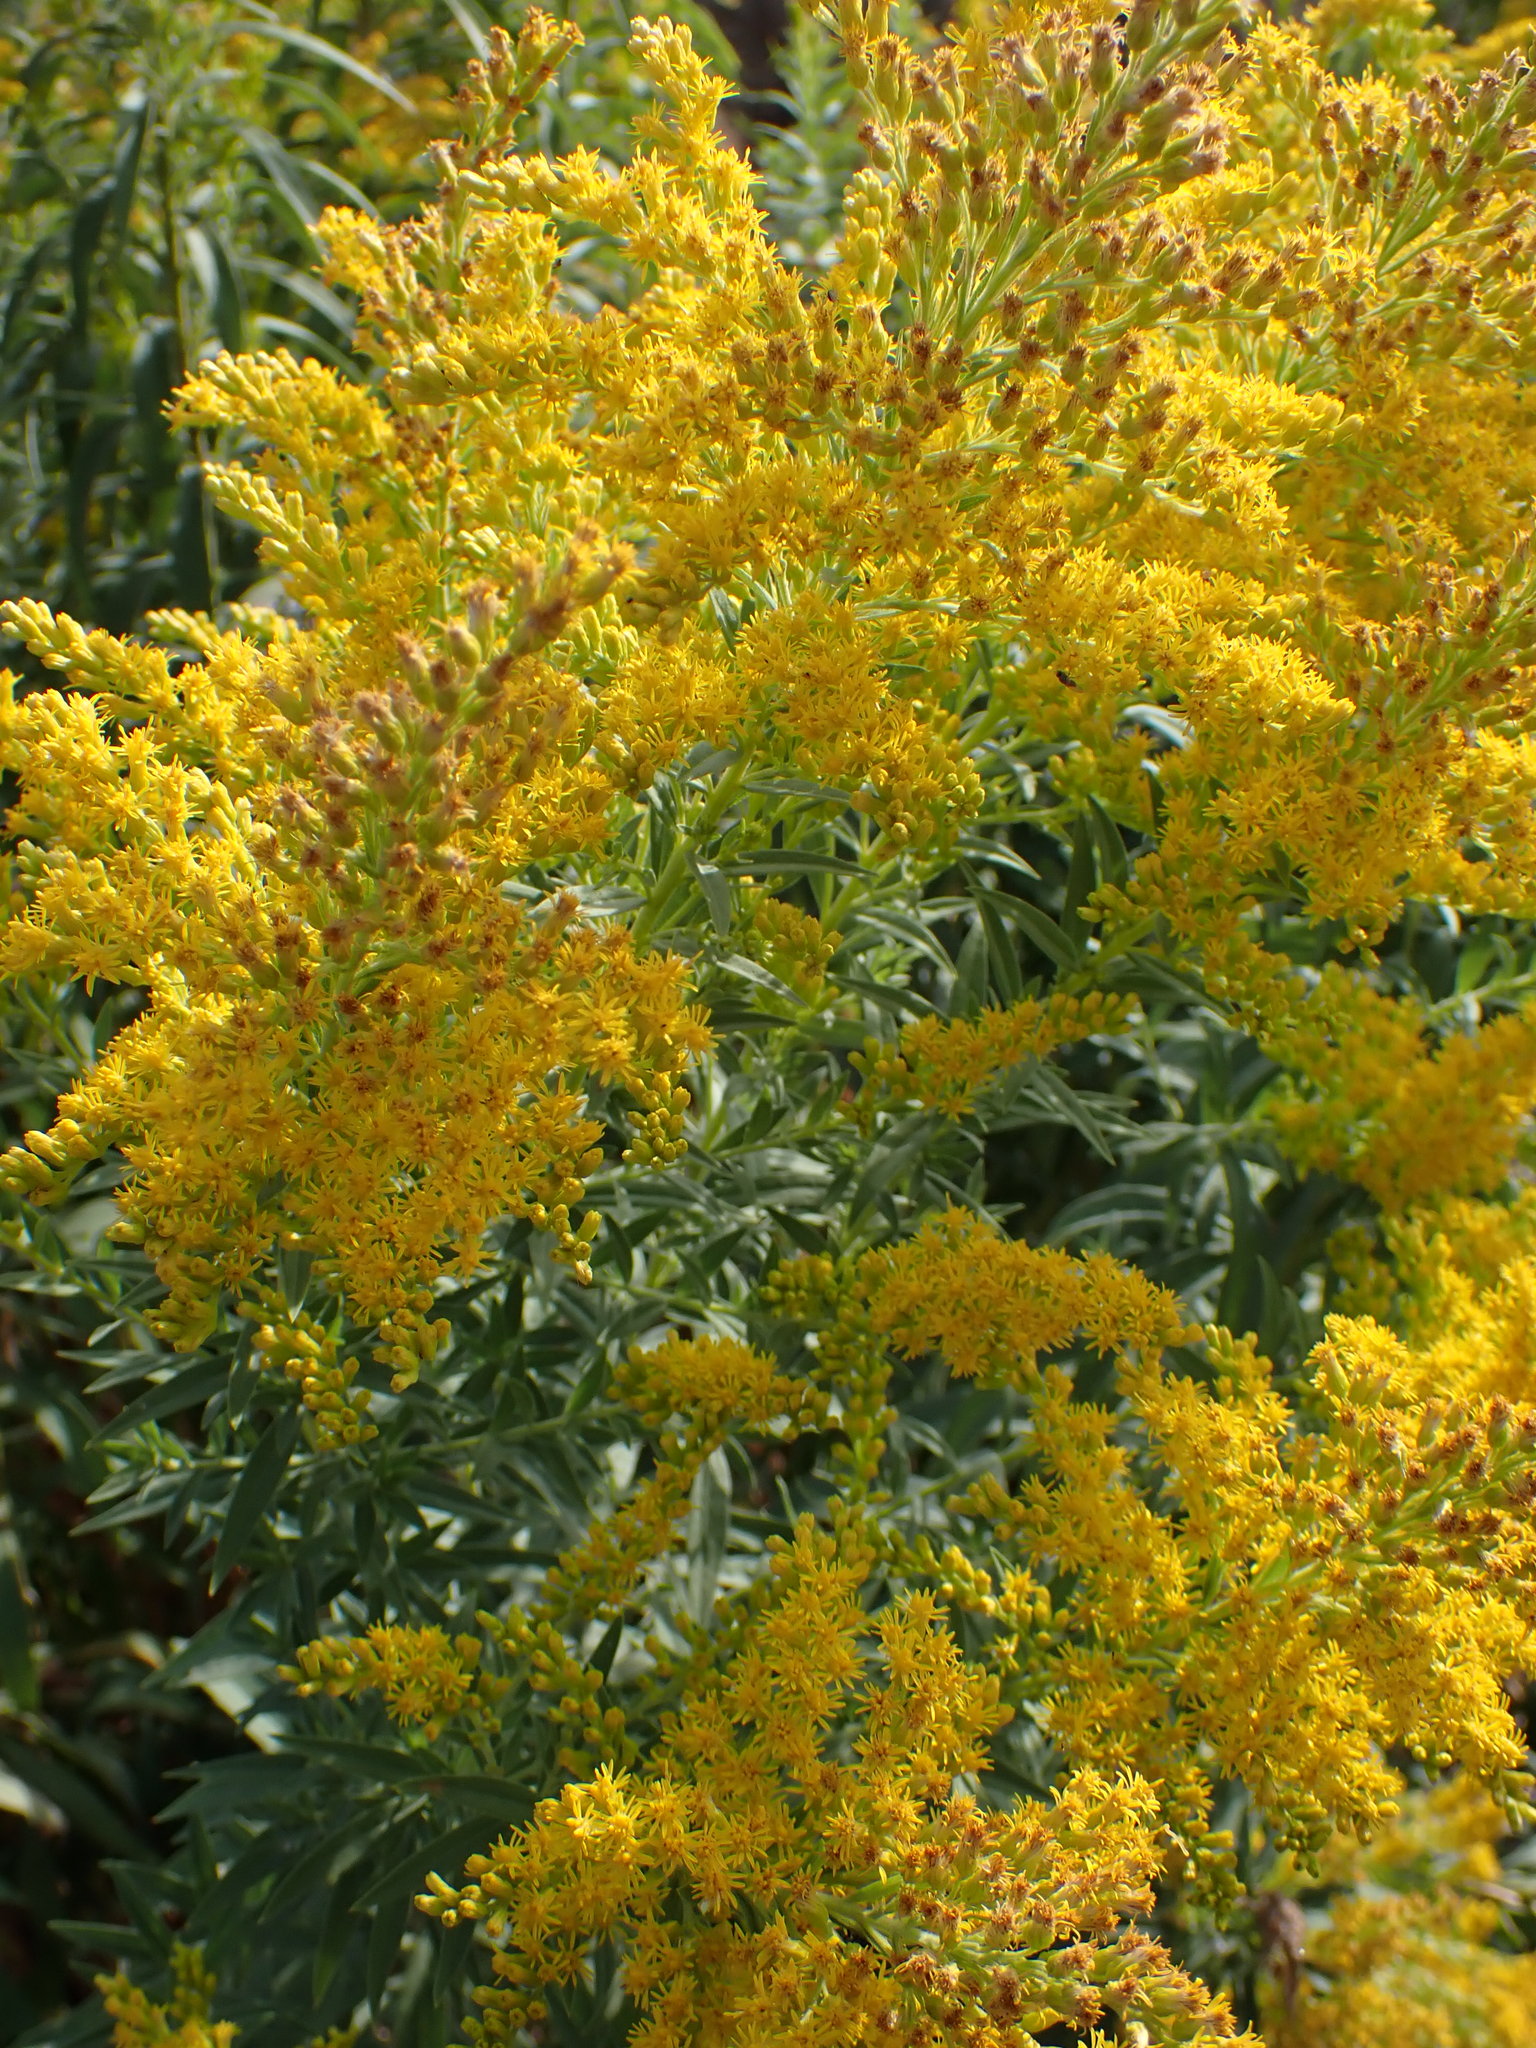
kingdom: Plantae
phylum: Tracheophyta
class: Magnoliopsida
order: Asterales
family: Asteraceae
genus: Solidago
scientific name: Solidago lepida
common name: Western canada goldenrod
